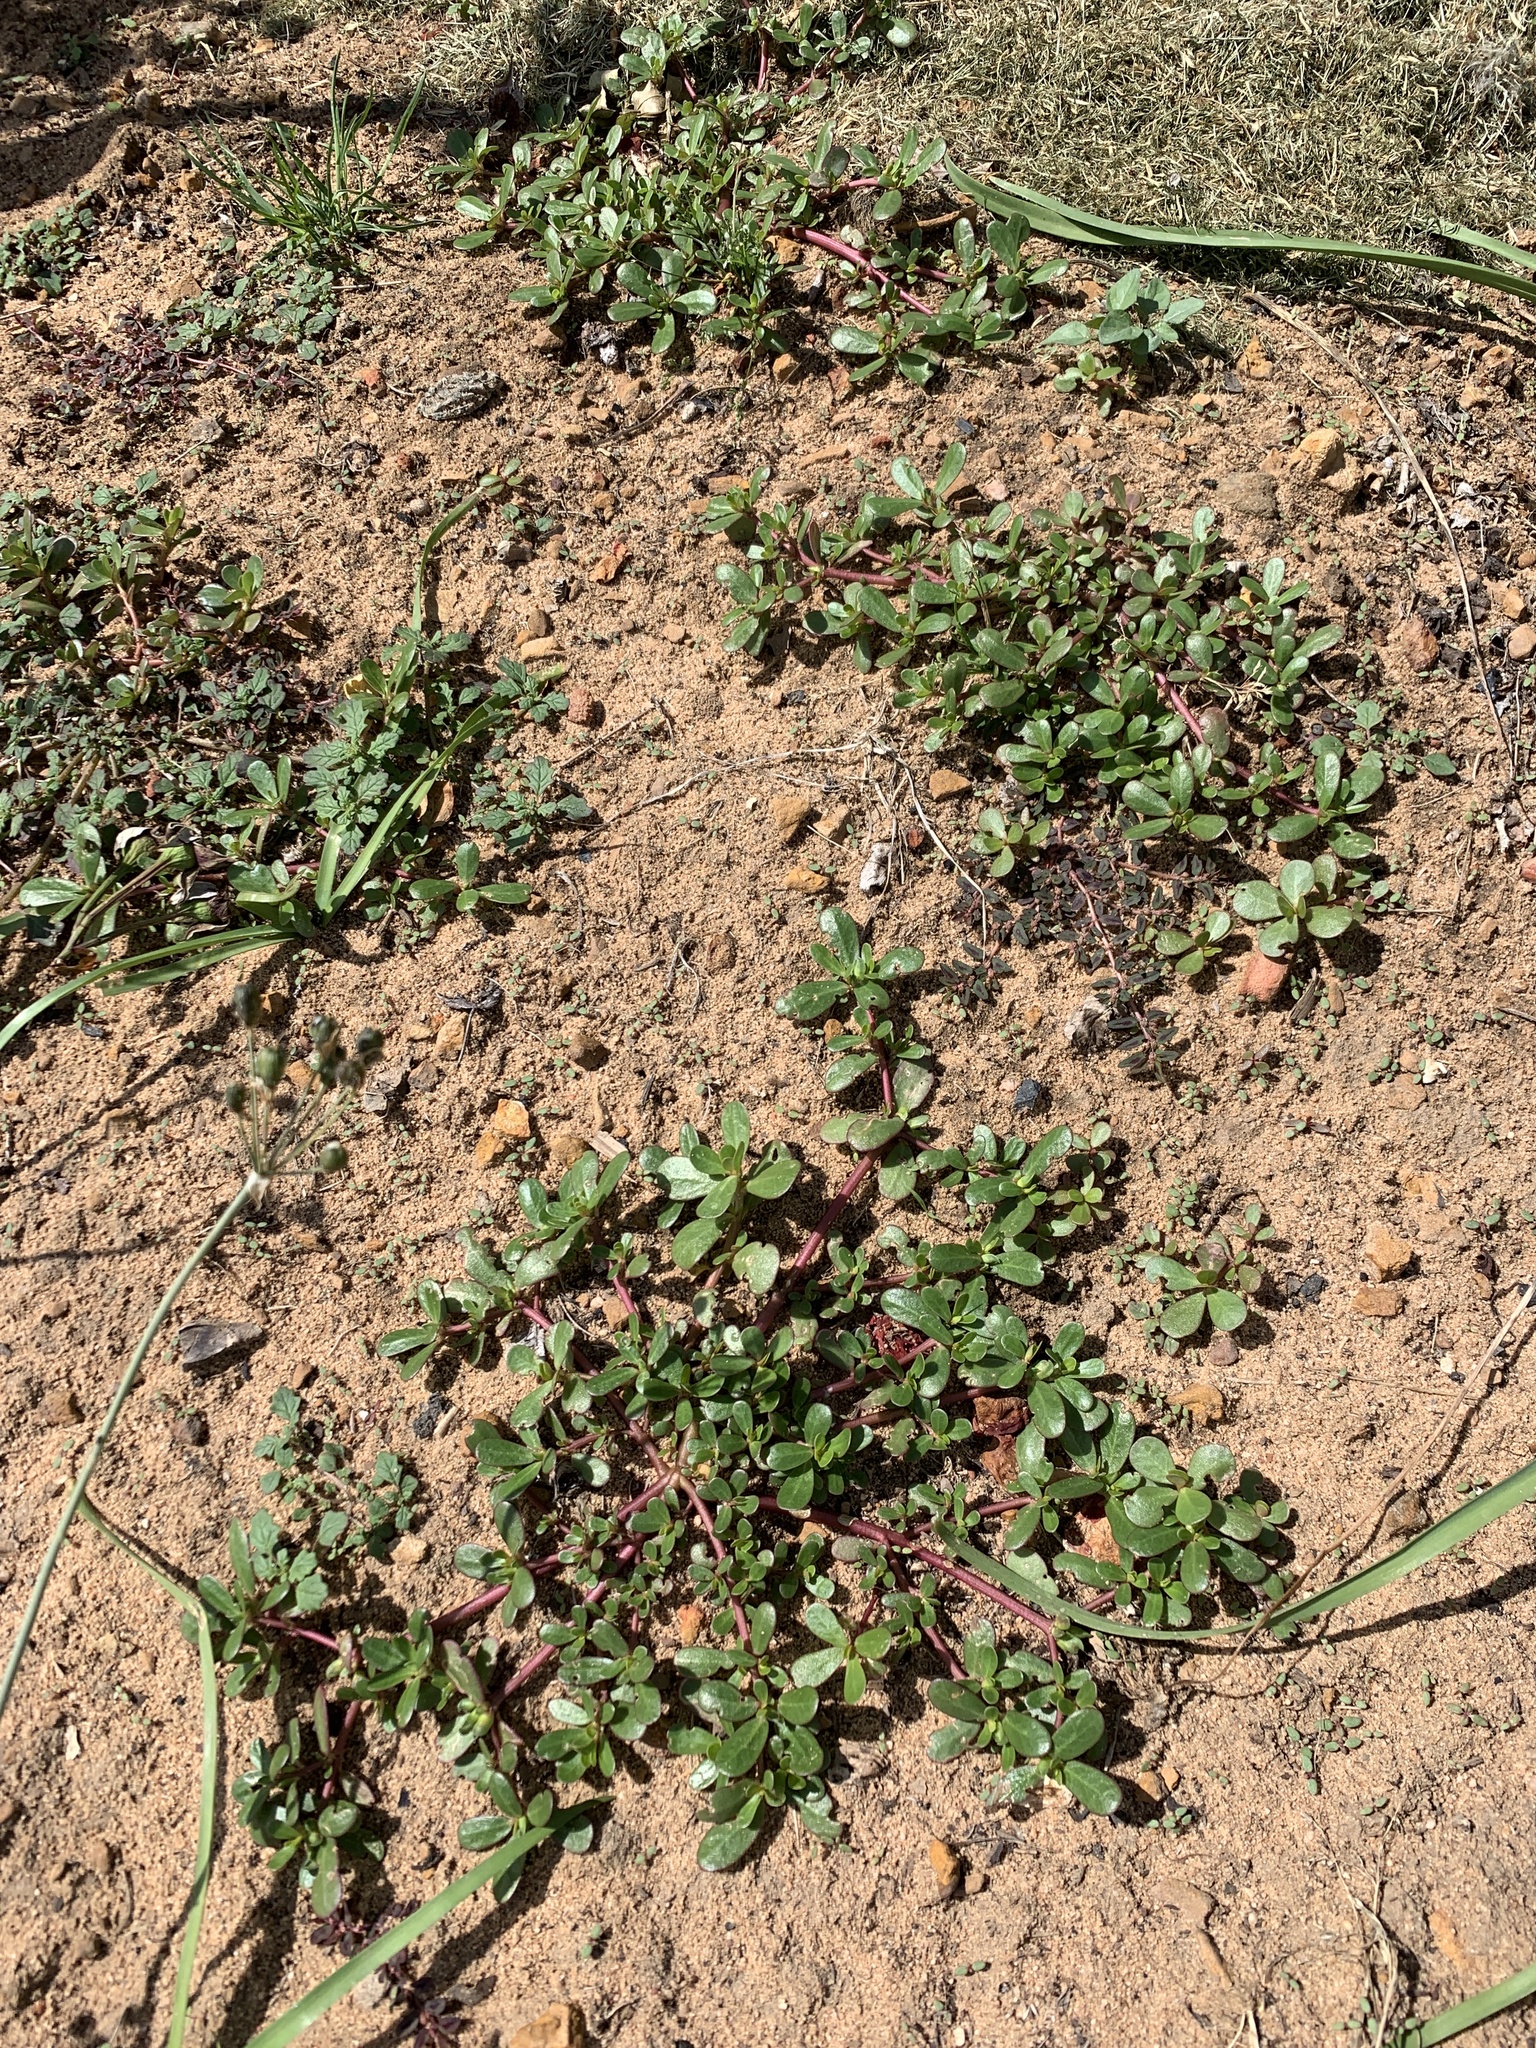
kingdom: Plantae
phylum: Tracheophyta
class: Magnoliopsida
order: Caryophyllales
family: Portulacaceae
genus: Portulaca
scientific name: Portulaca oleracea
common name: Common purslane
